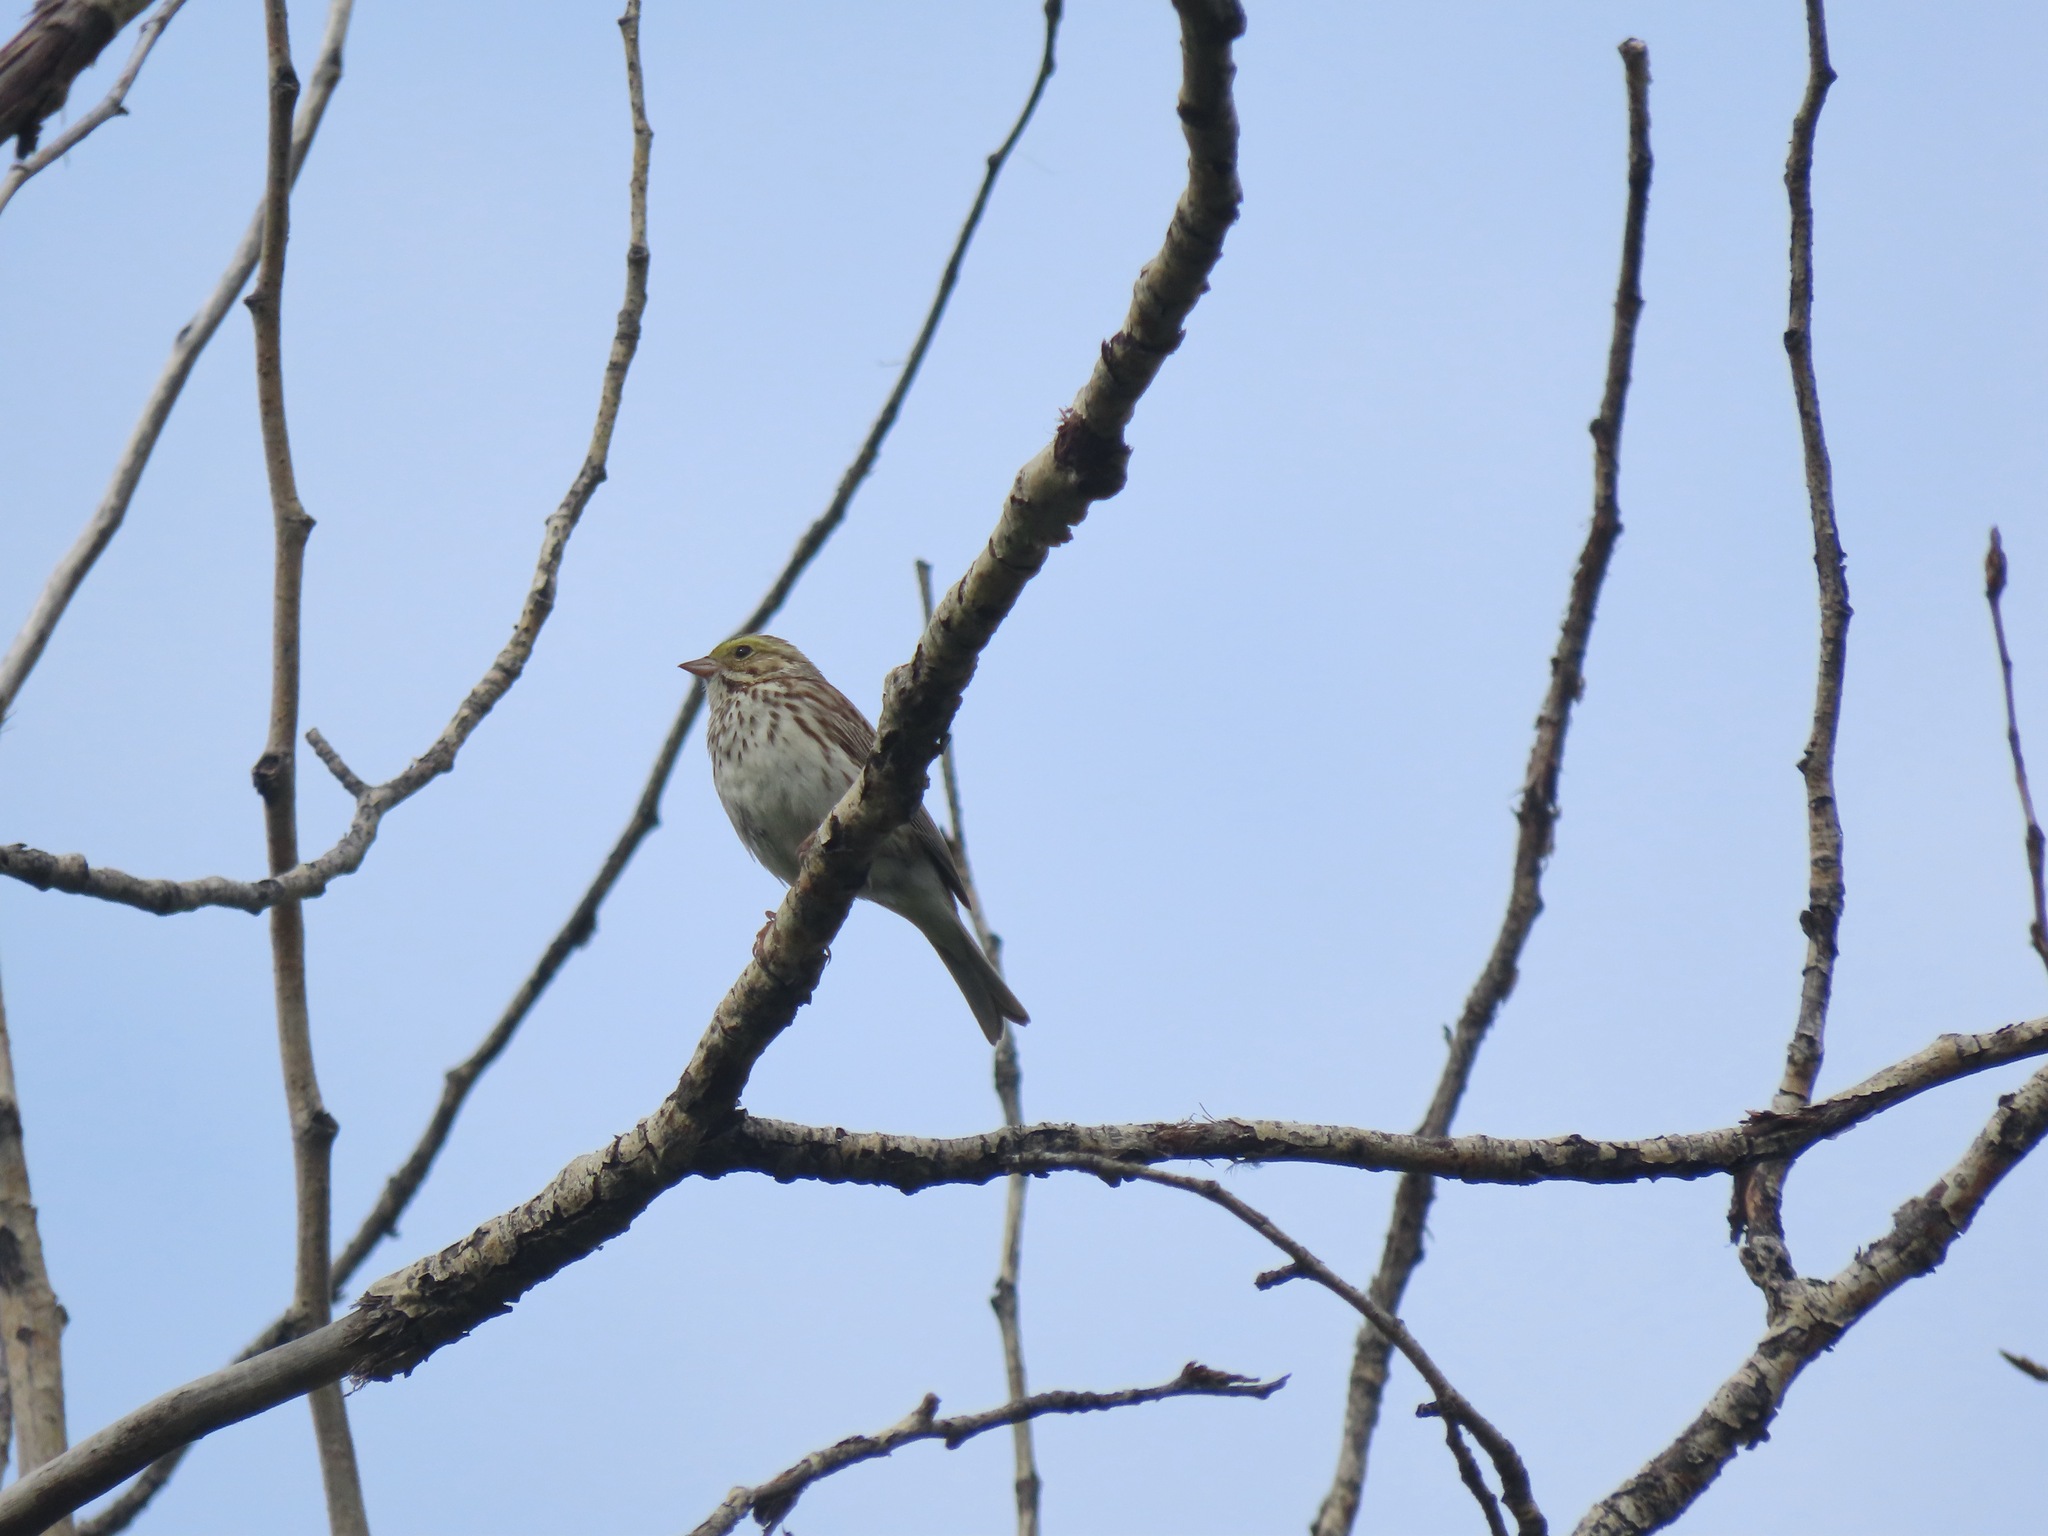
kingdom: Animalia
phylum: Chordata
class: Aves
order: Passeriformes
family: Passerellidae
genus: Passerculus
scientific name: Passerculus sandwichensis
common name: Savannah sparrow
